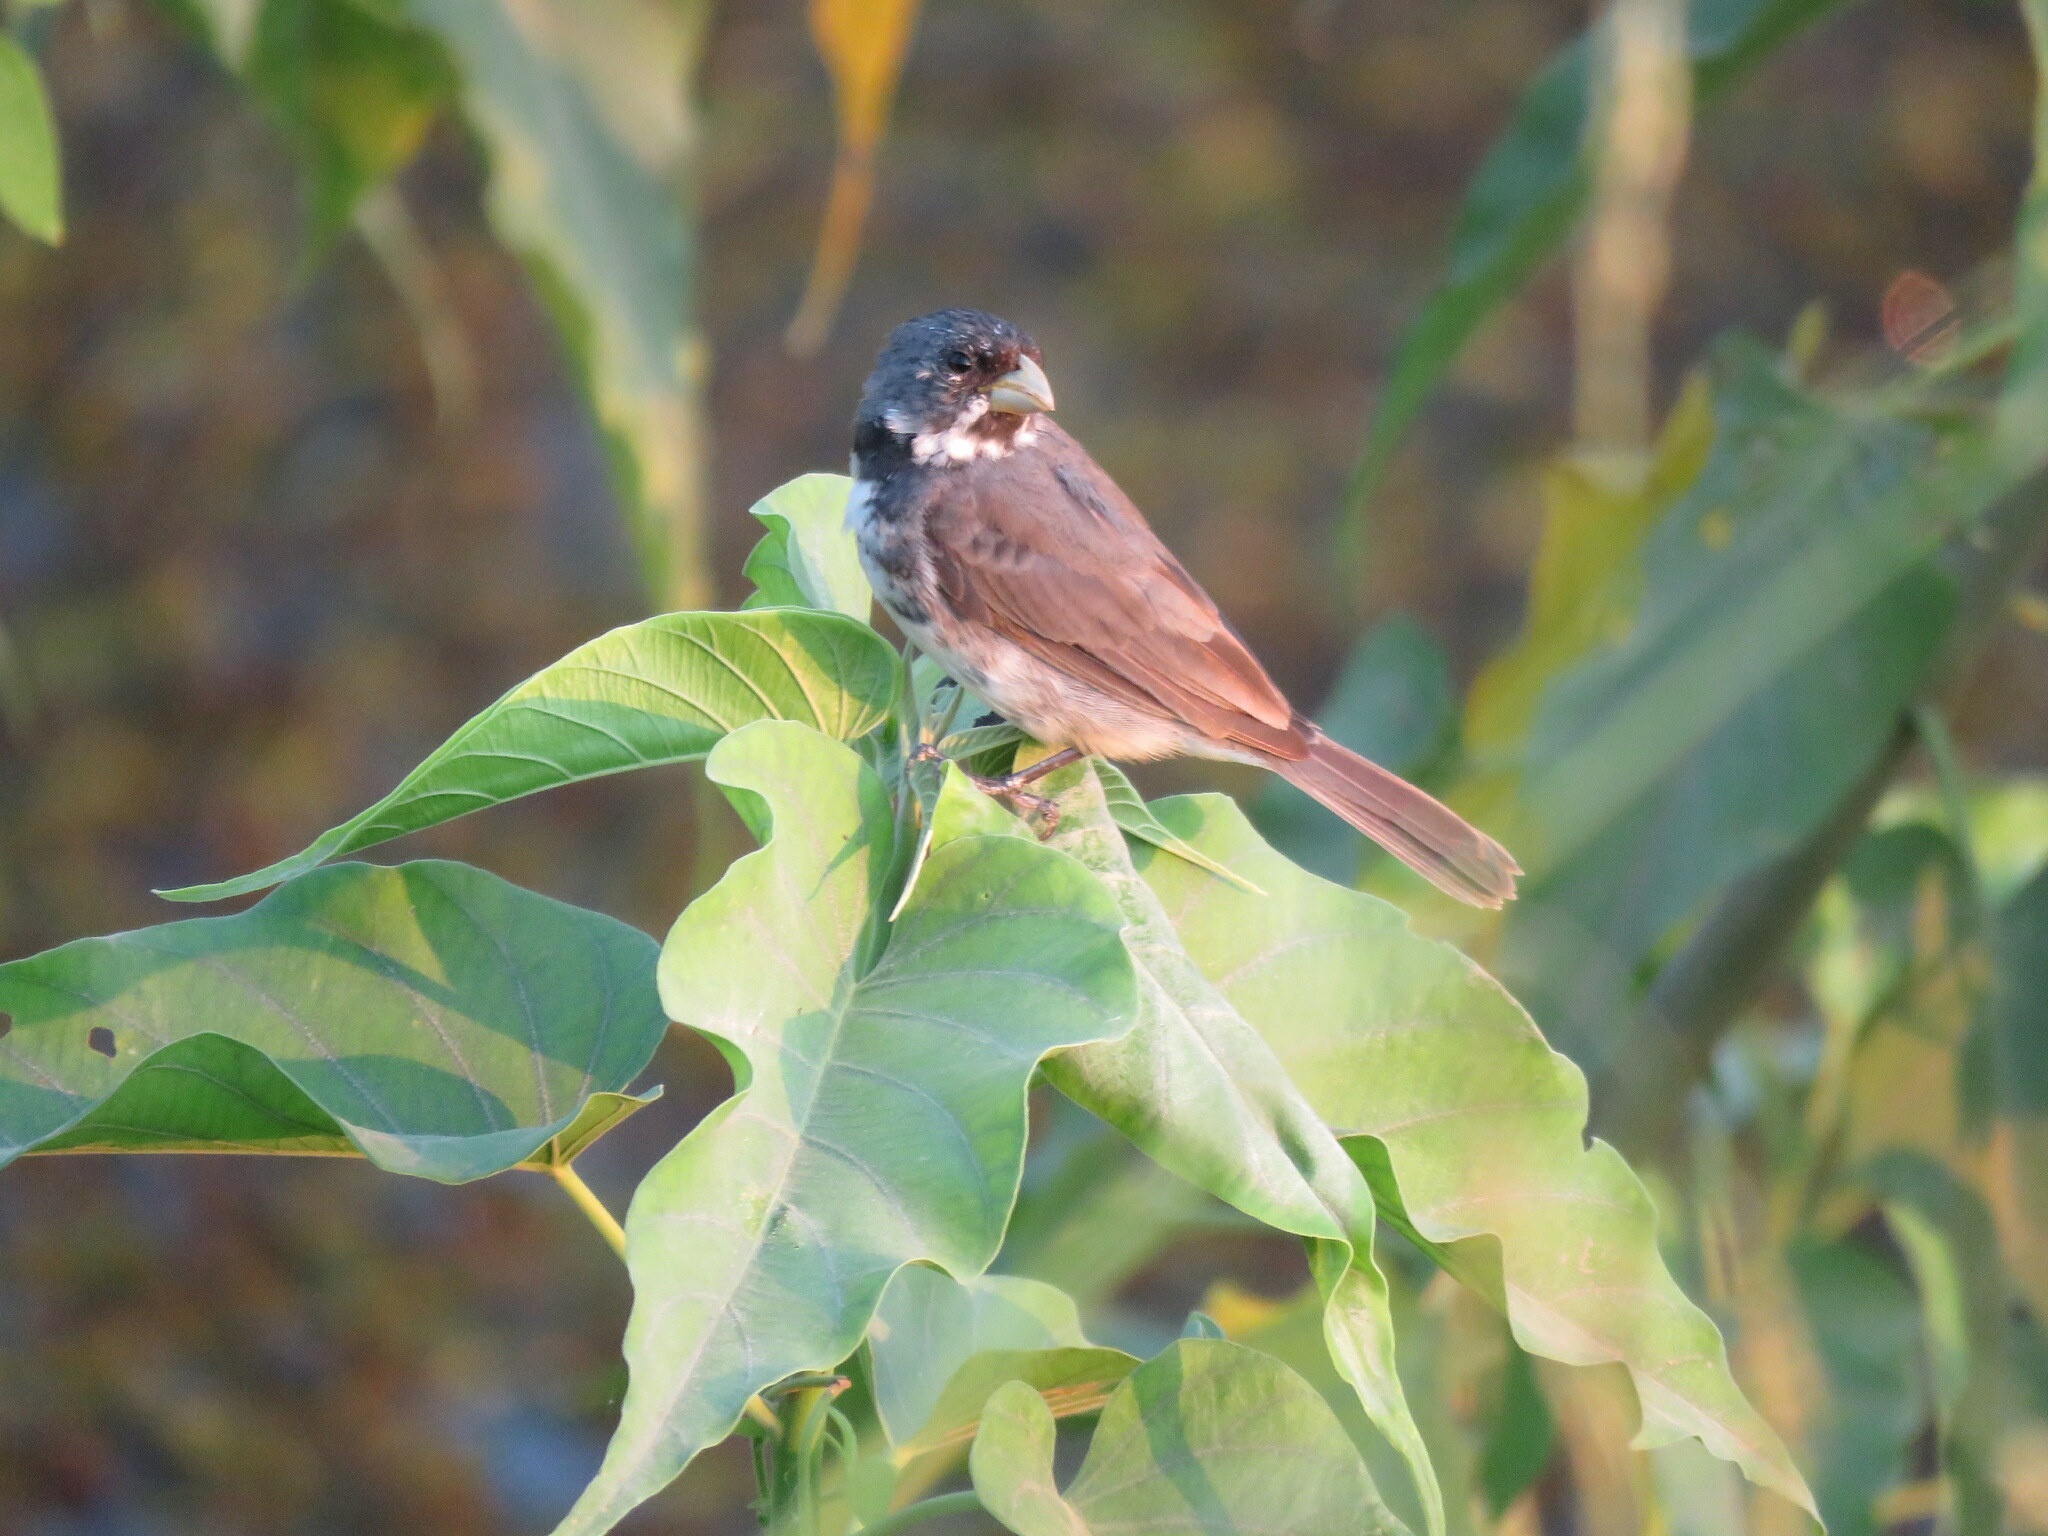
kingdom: Animalia
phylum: Chordata
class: Aves
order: Passeriformes
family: Thraupidae
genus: Sporophila
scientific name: Sporophila caerulescens
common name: Double-collared seedeater
